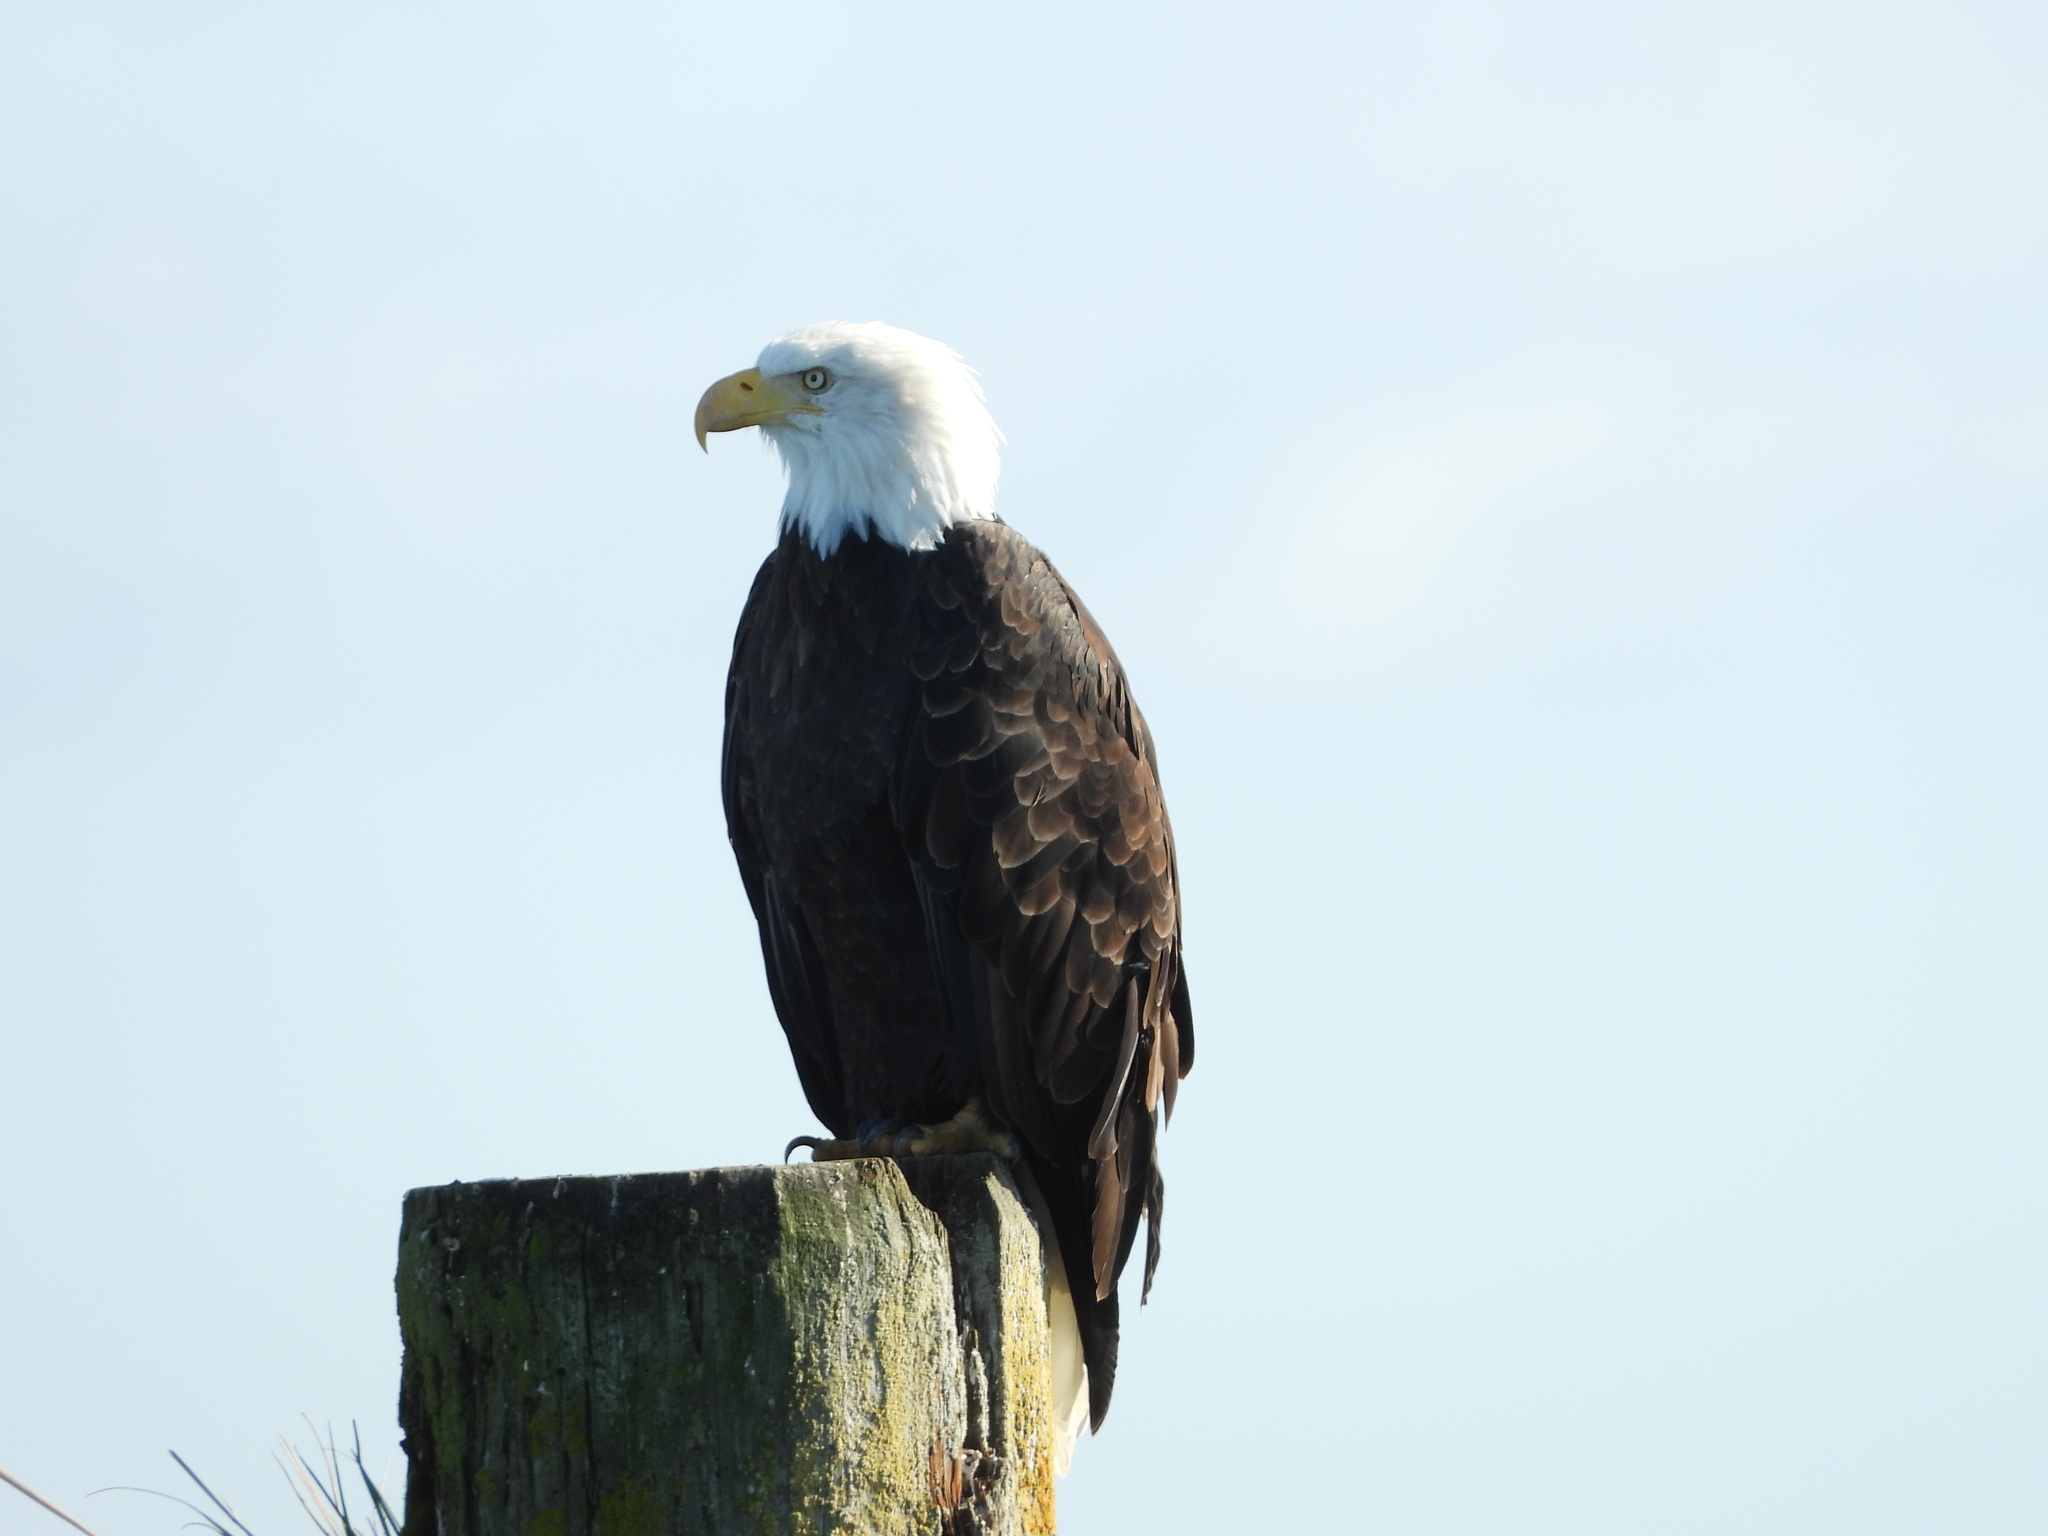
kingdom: Animalia
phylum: Chordata
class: Aves
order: Accipitriformes
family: Accipitridae
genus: Haliaeetus
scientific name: Haliaeetus leucocephalus
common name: Bald eagle
